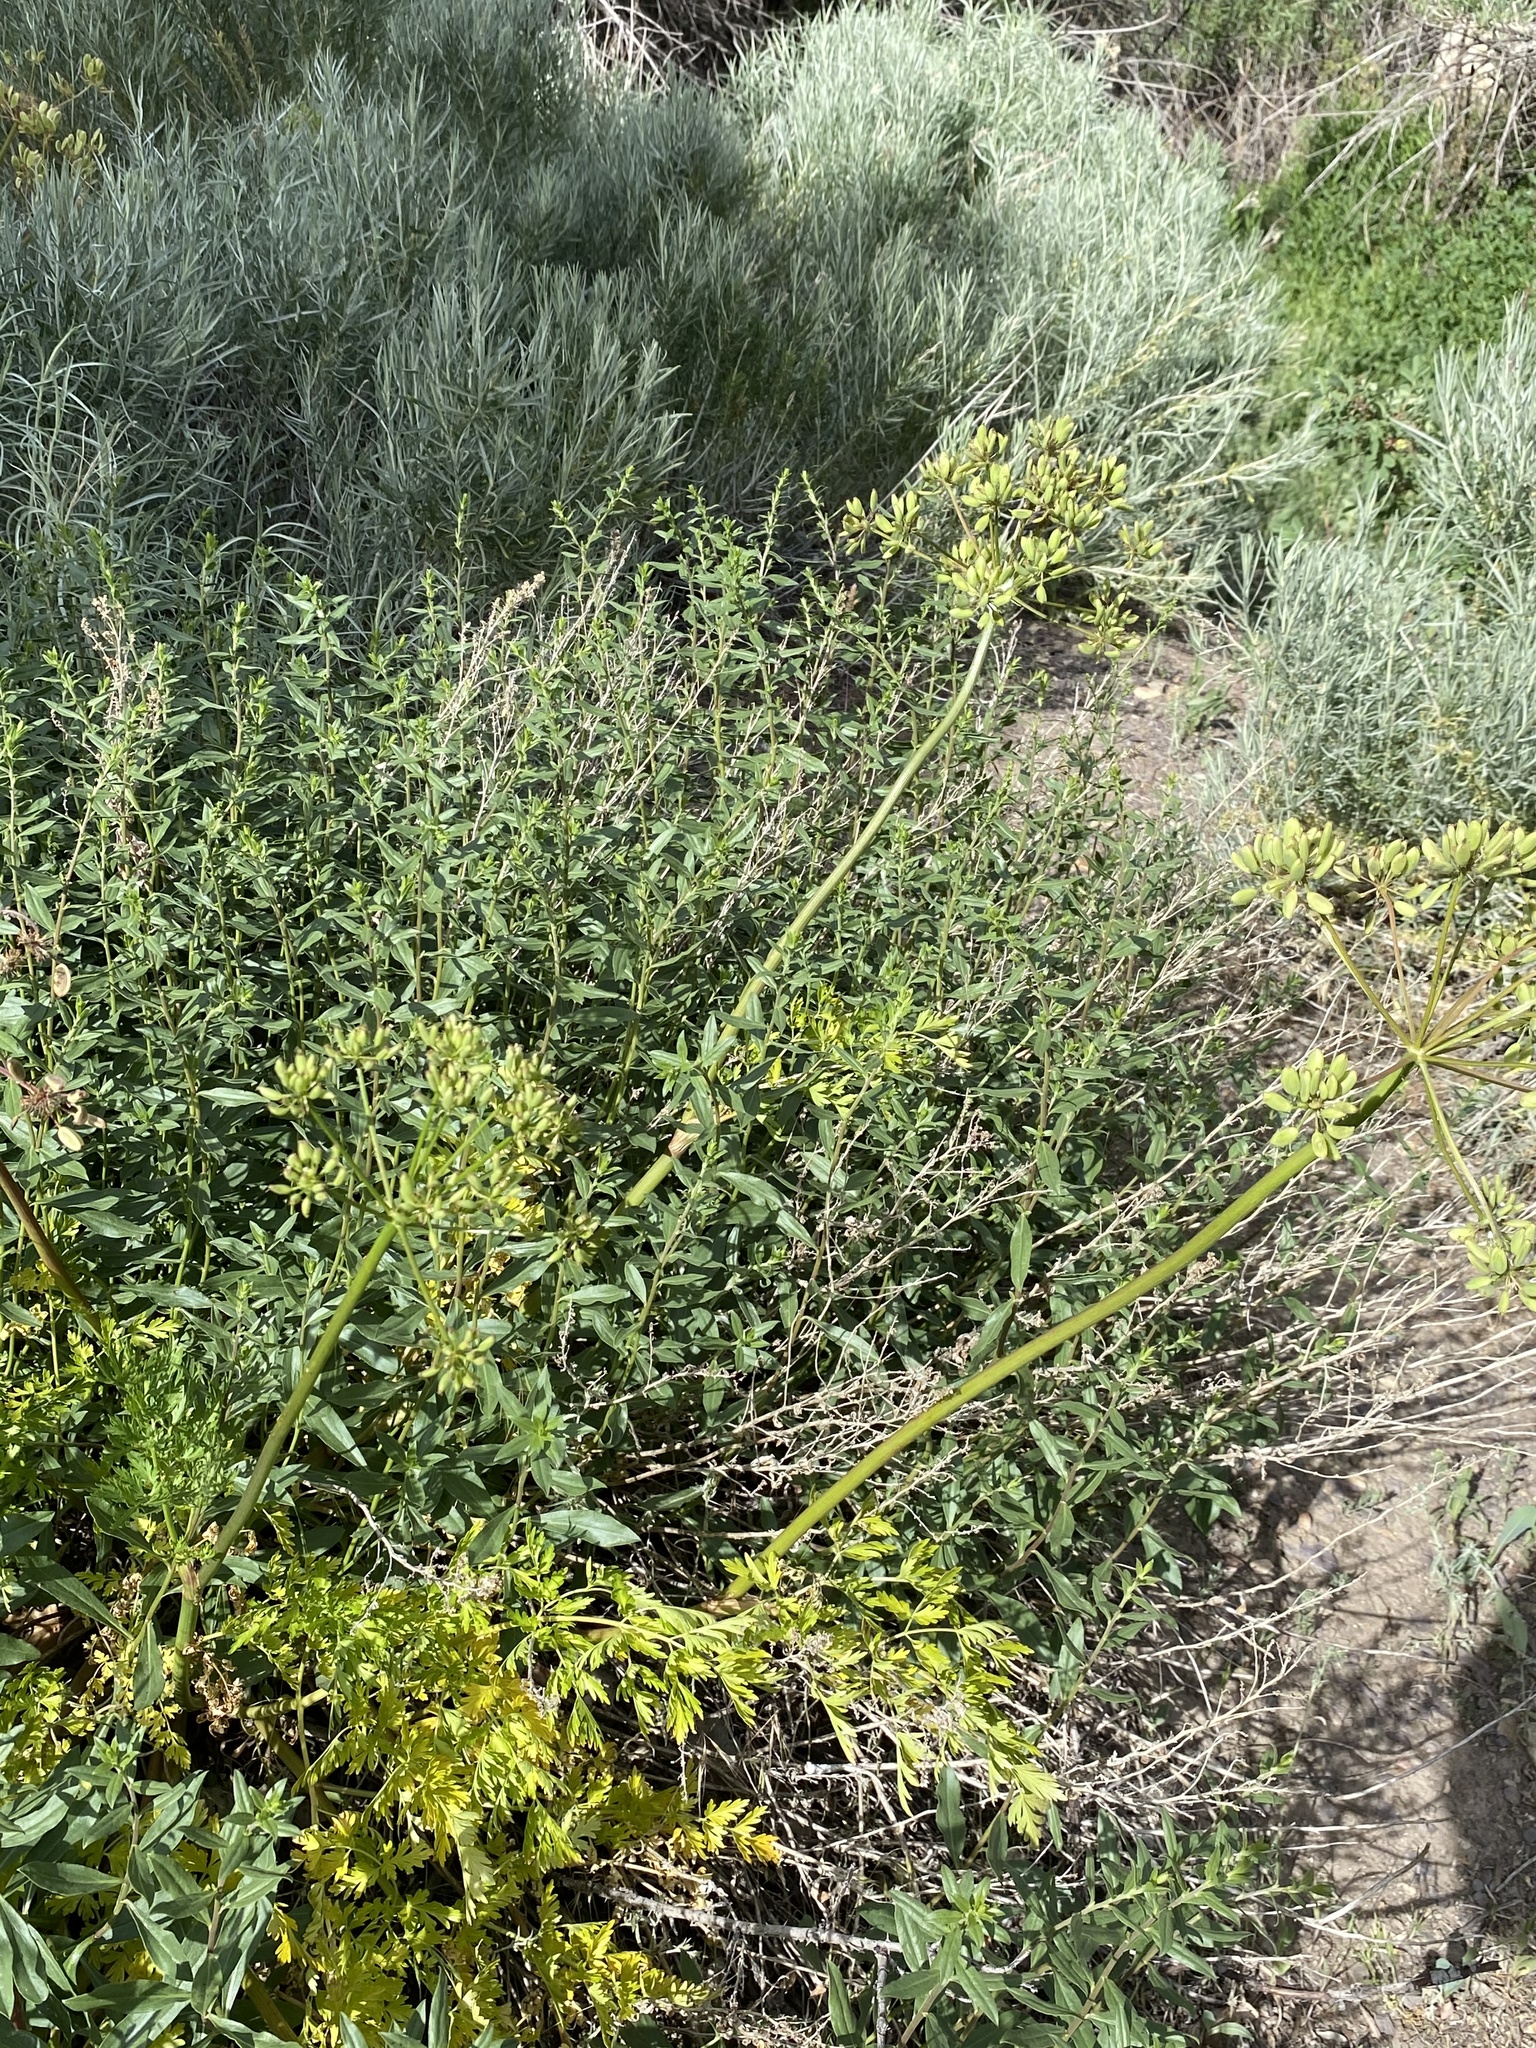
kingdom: Plantae
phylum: Tracheophyta
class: Magnoliopsida
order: Apiales
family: Apiaceae
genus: Lomatium
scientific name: Lomatium multifidum
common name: Carrot-leaved biscuitroot
